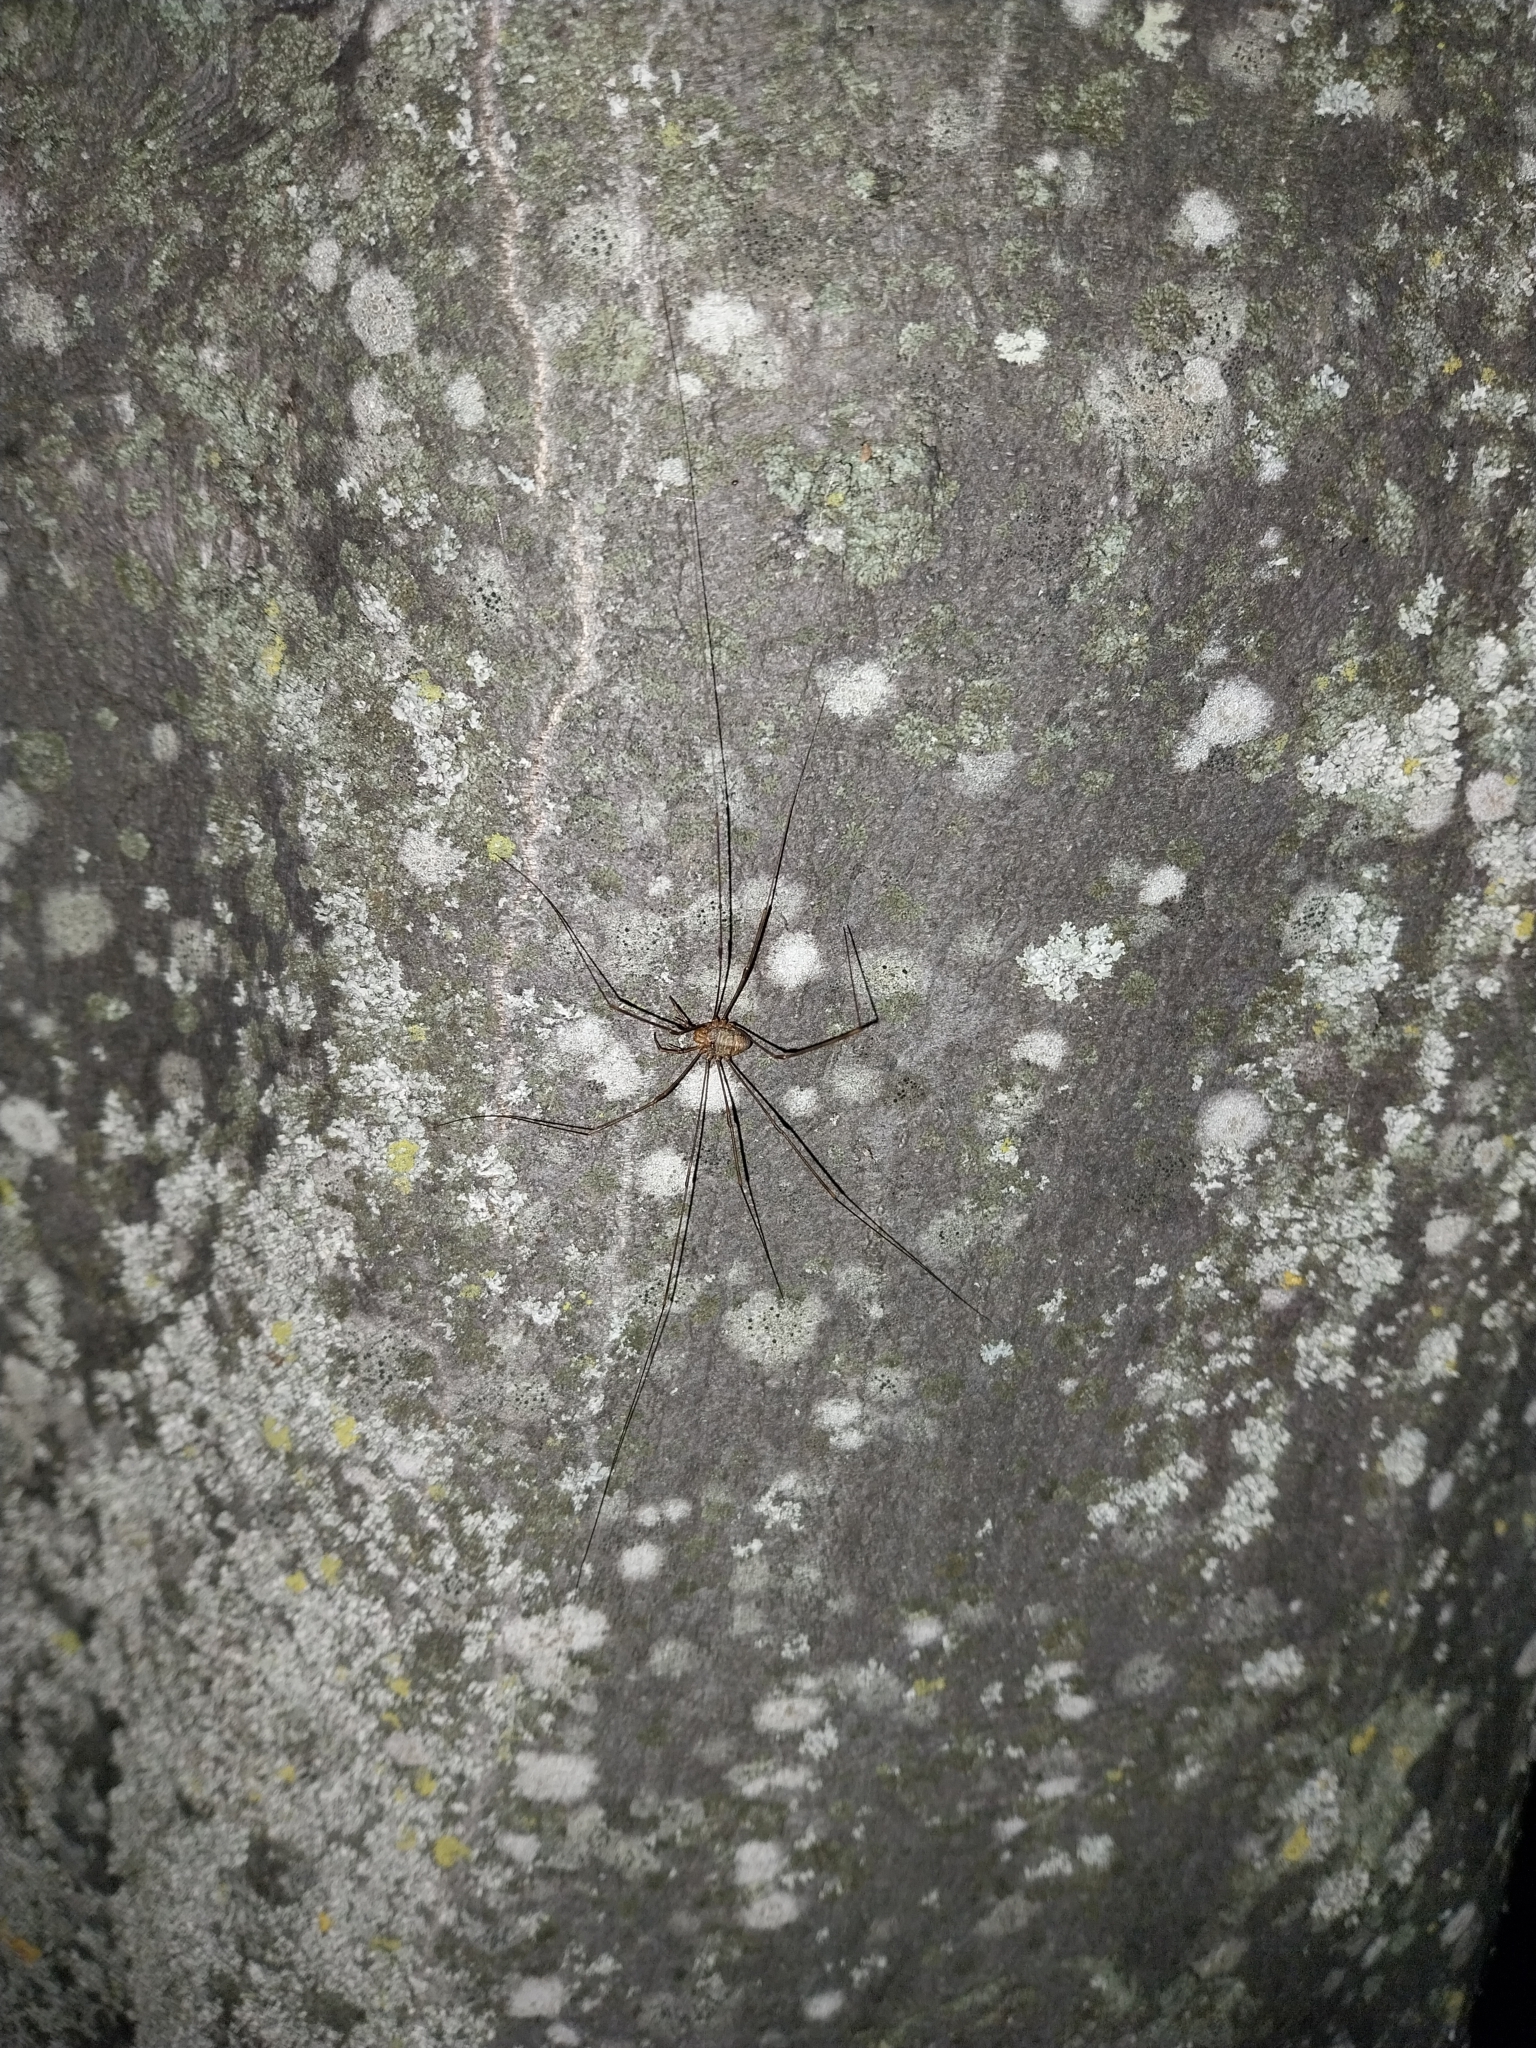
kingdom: Animalia
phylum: Arthropoda
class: Arachnida
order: Opiliones
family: Phalangiidae
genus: Dicranopalpus
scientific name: Dicranopalpus ramosus
